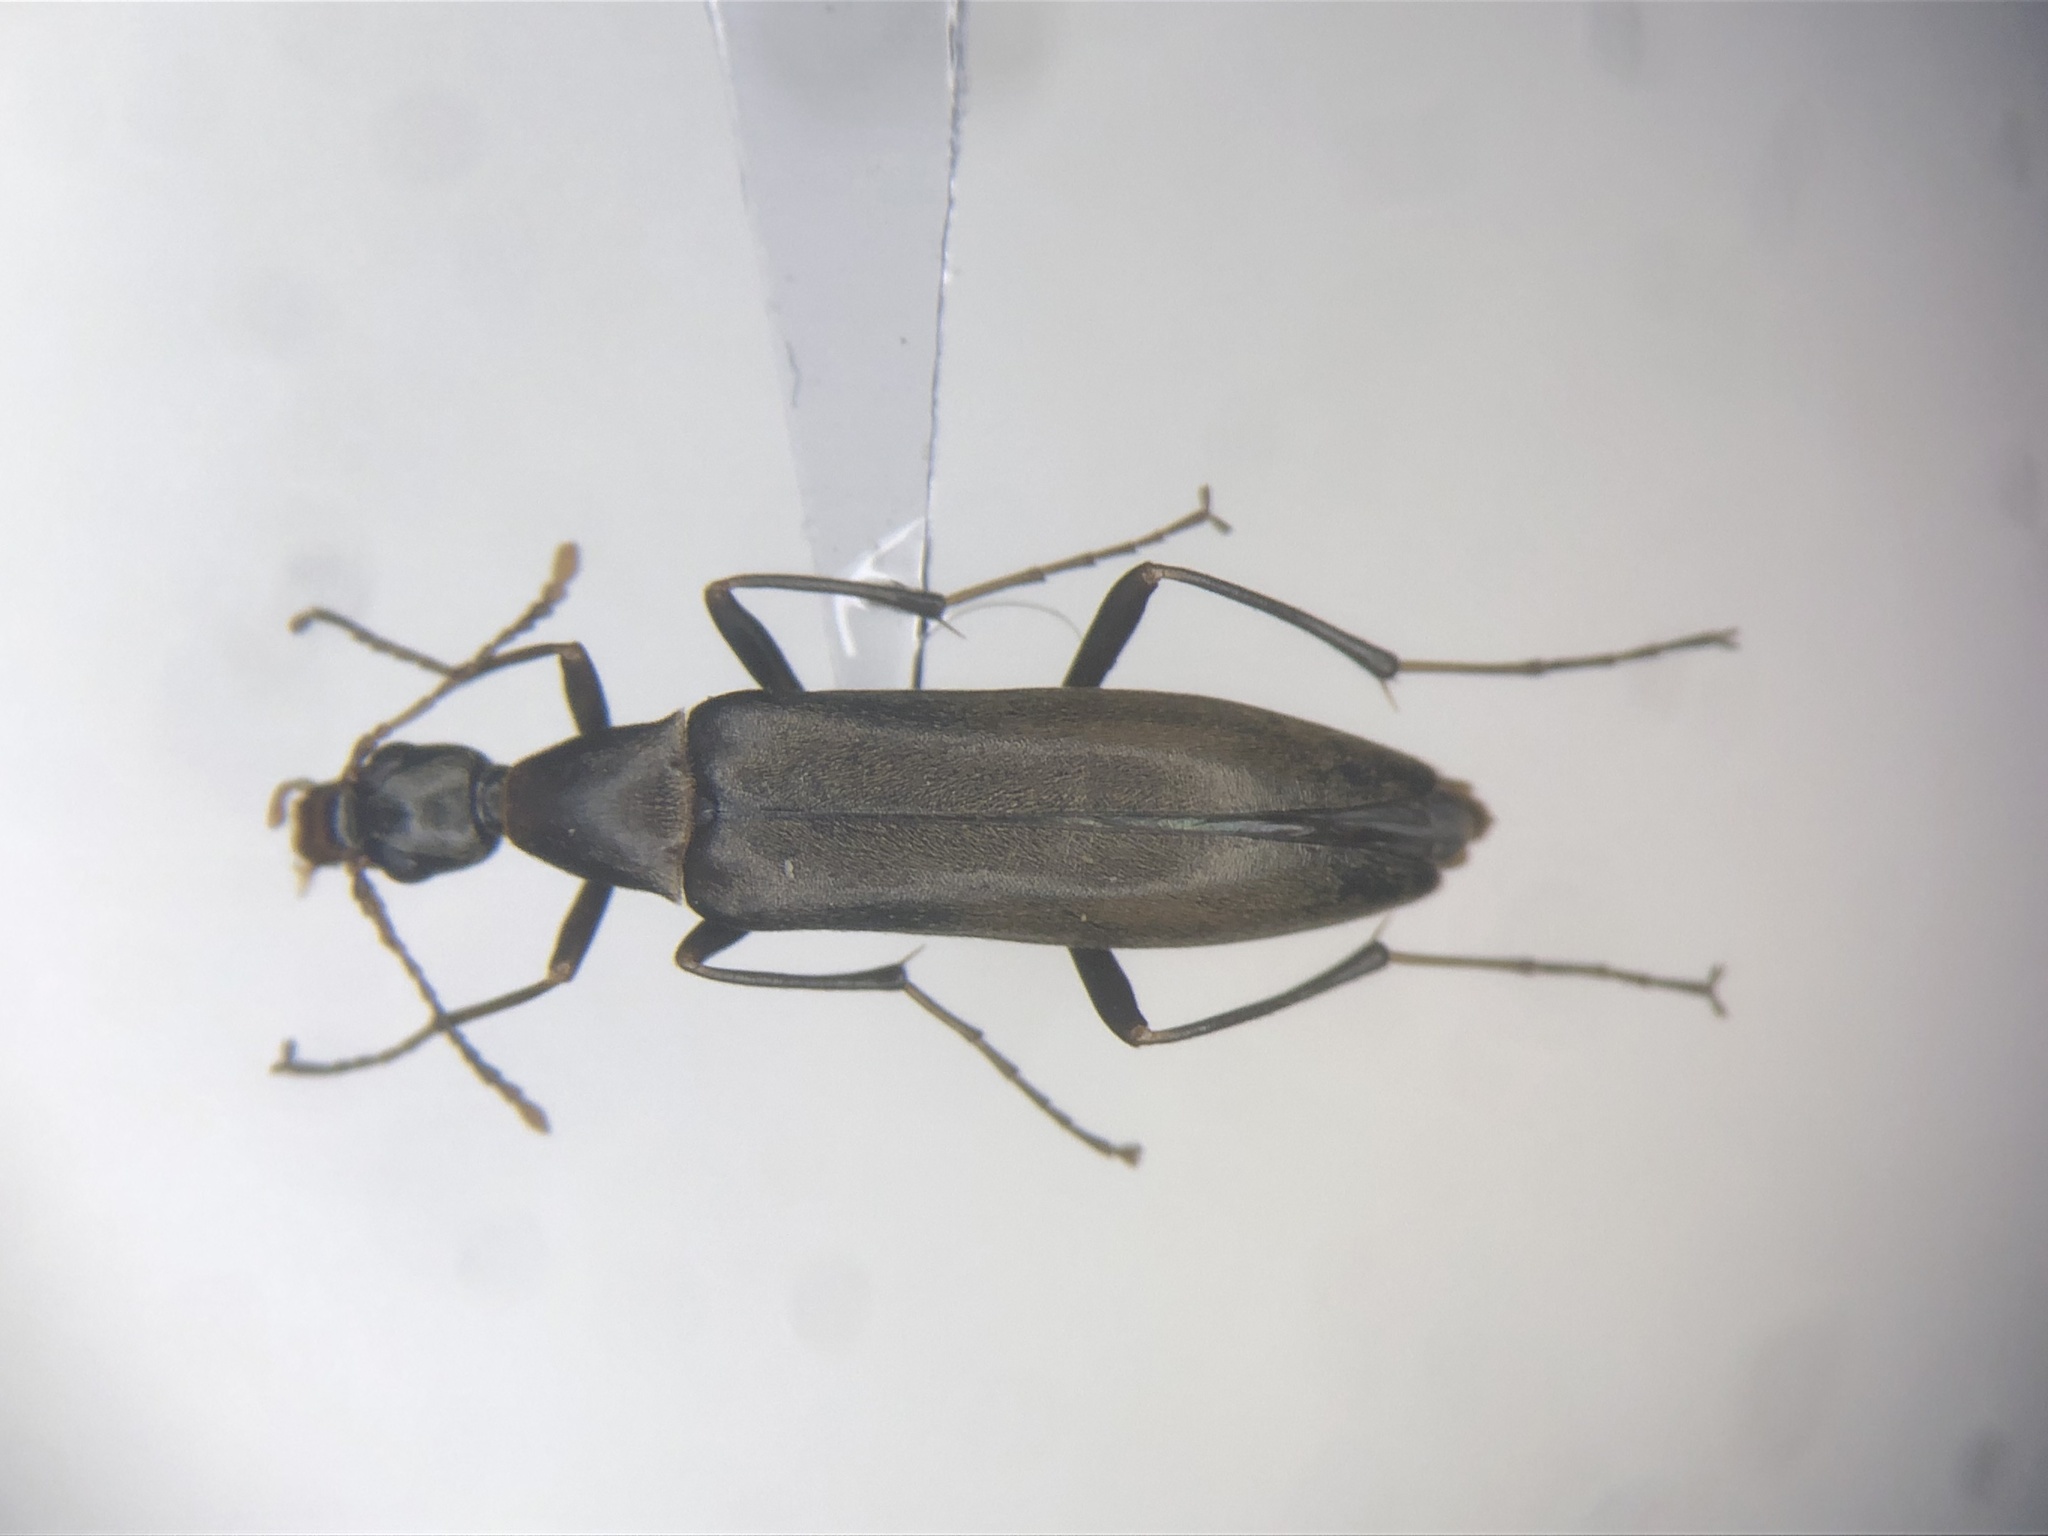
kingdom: Animalia
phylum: Arthropoda
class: Insecta
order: Coleoptera
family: Stenotrachelidae
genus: Cephaloon
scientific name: Cephaloon lepturides
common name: False leptura beetle
